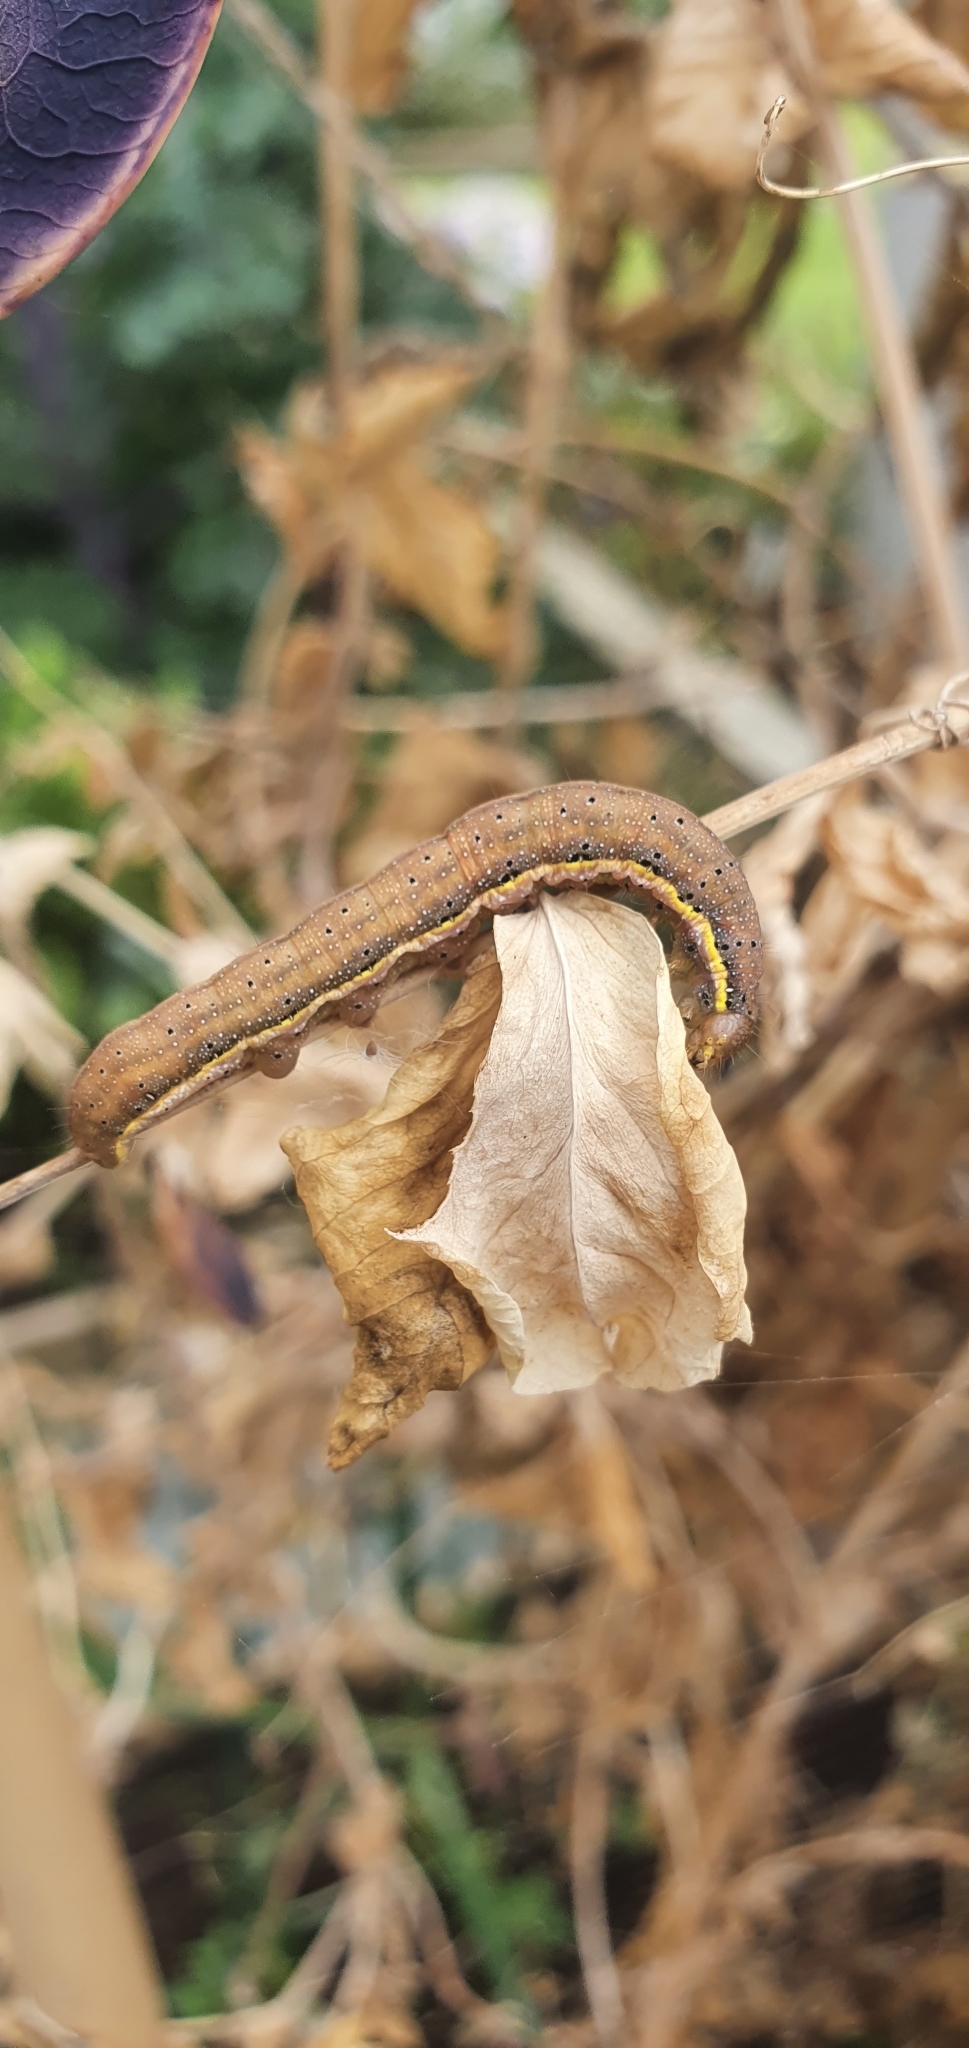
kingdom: Animalia
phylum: Arthropoda
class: Insecta
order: Lepidoptera
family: Noctuidae
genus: Lacanobia
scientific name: Lacanobia oleracea
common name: Bright-line brown-eye
